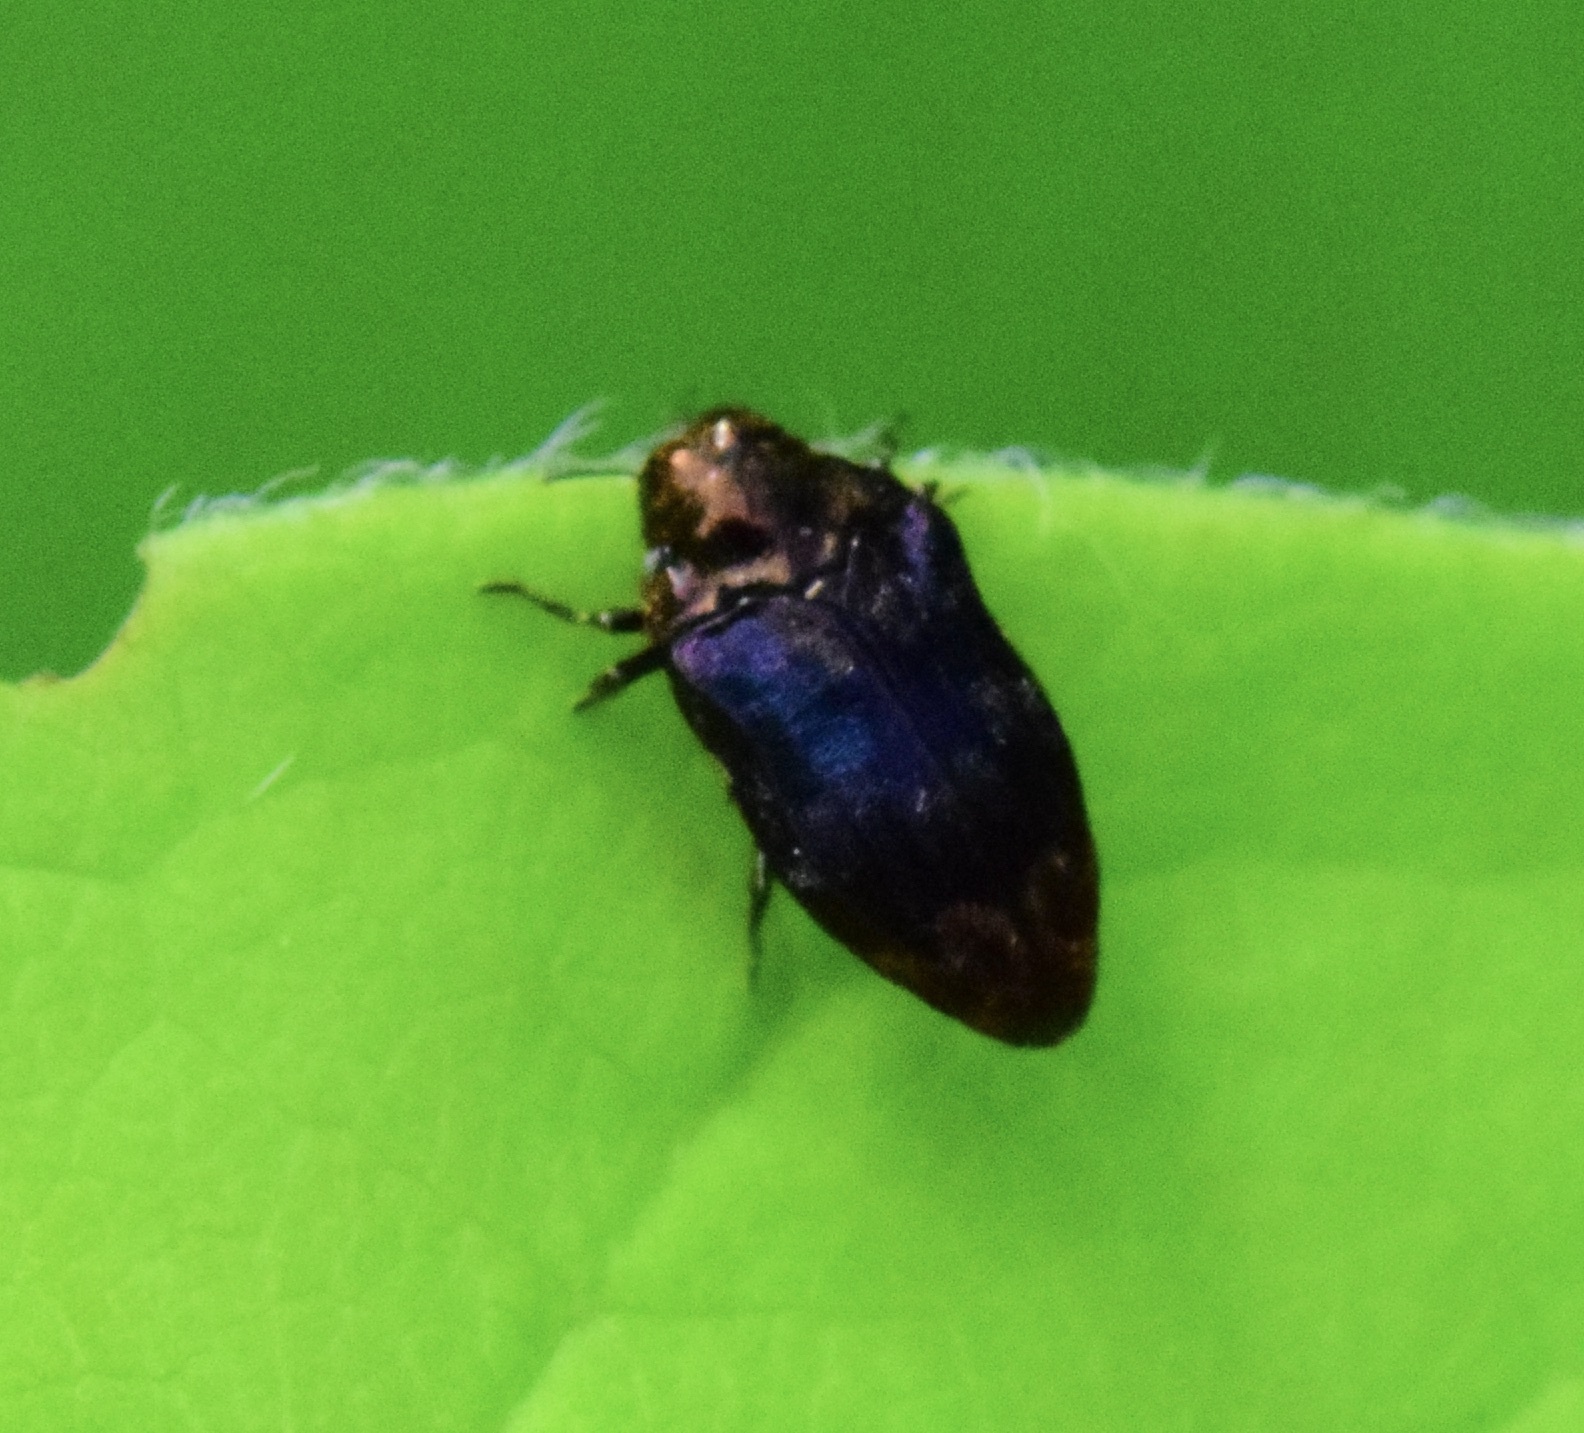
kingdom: Animalia
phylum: Arthropoda
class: Insecta
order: Coleoptera
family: Buprestidae
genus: Brachys
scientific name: Brachys aerosus
